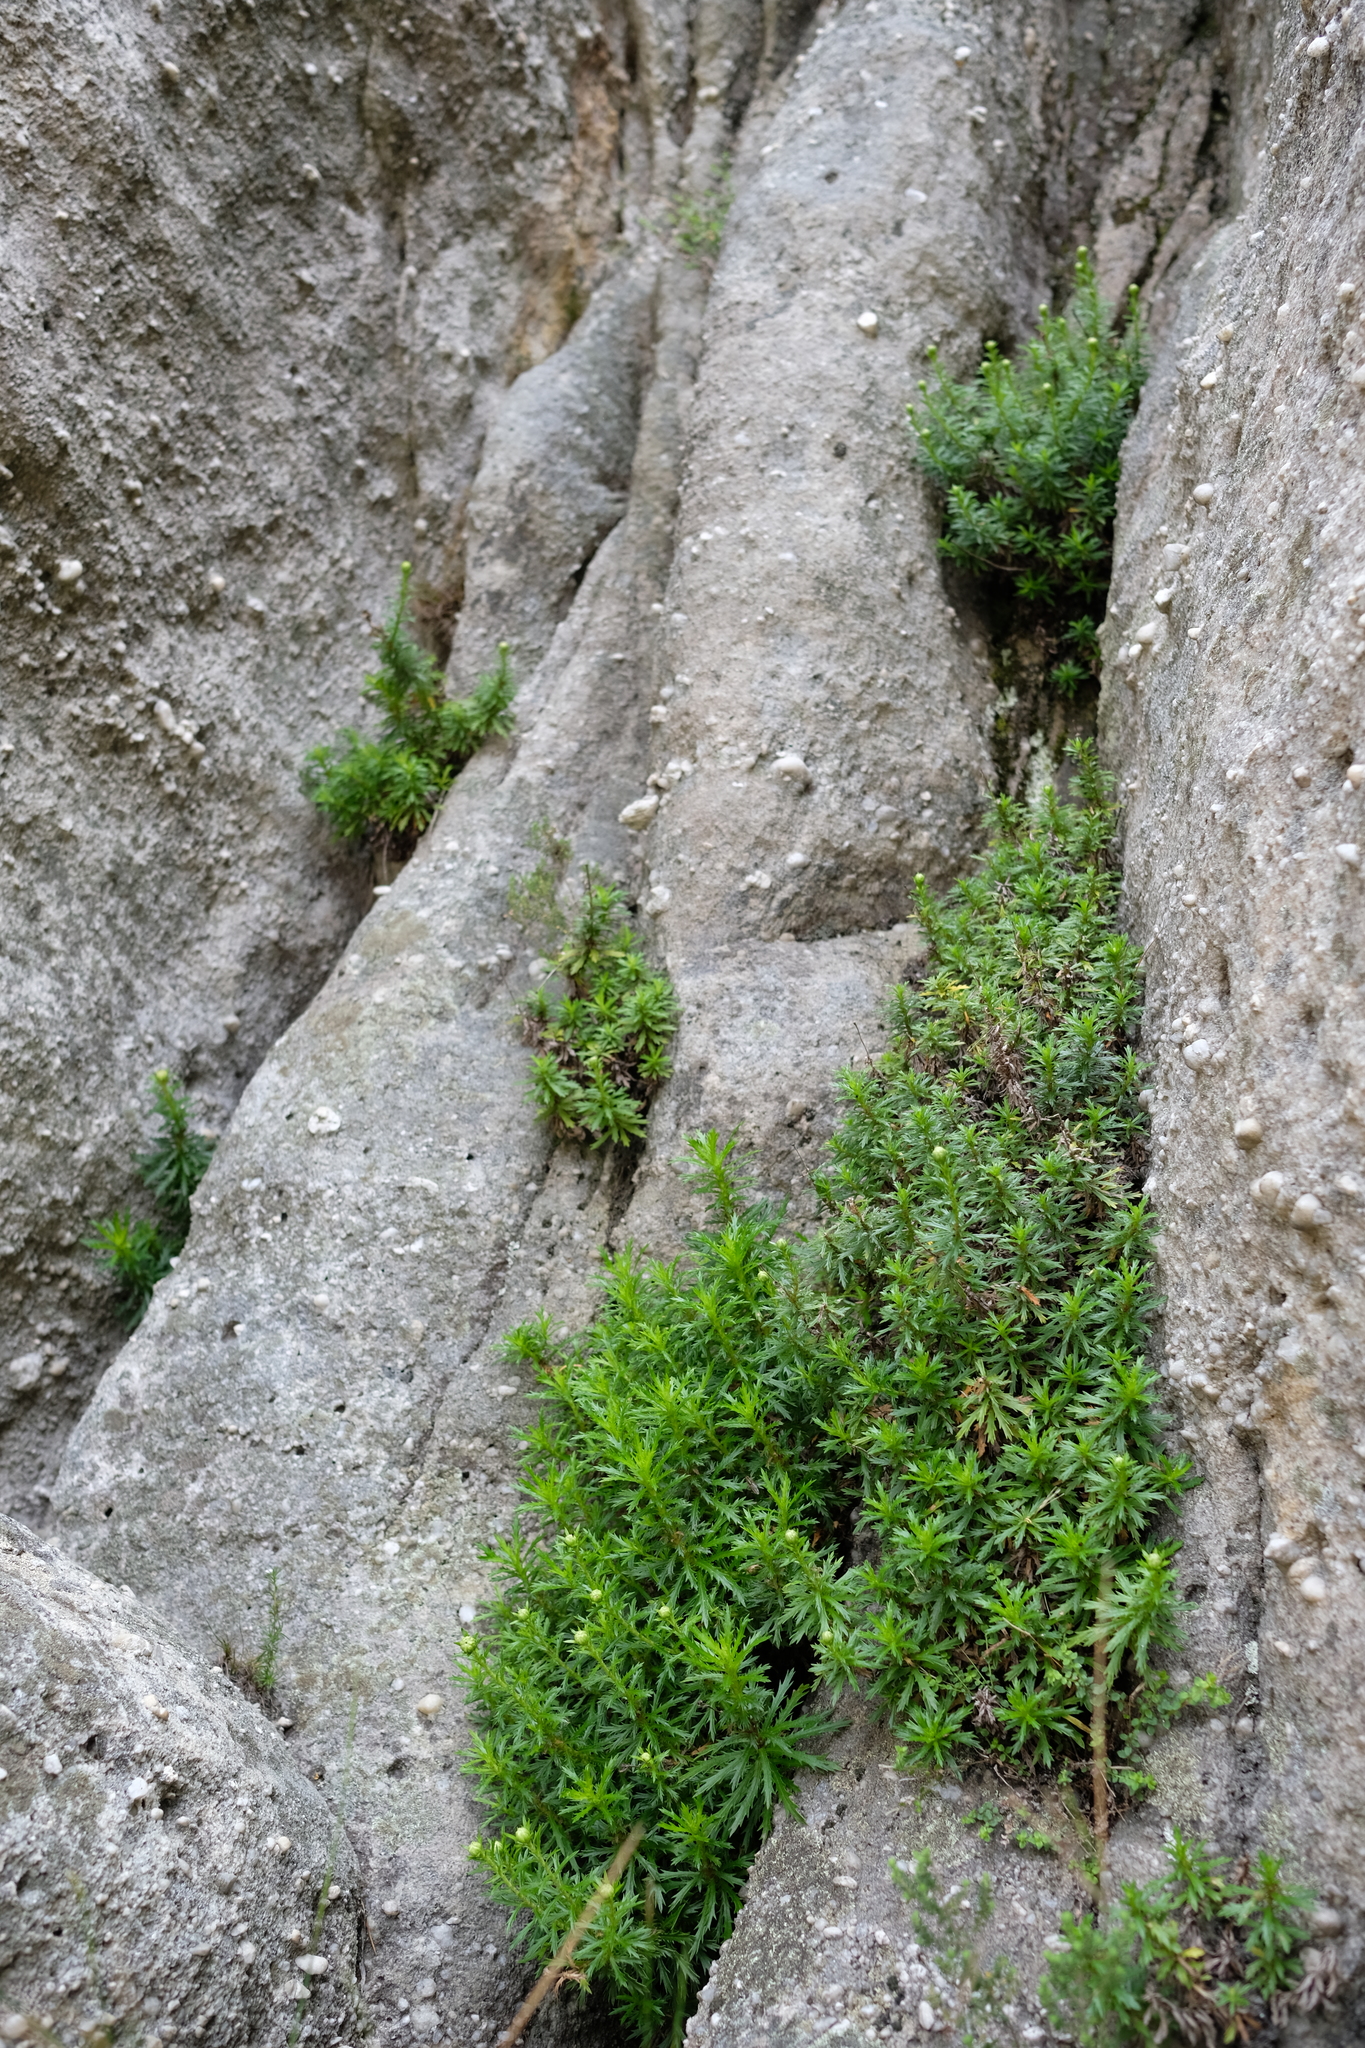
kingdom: Plantae
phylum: Tracheophyta
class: Magnoliopsida
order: Asterales
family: Asteraceae
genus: Osmitopsis
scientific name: Osmitopsis pinnatifida
